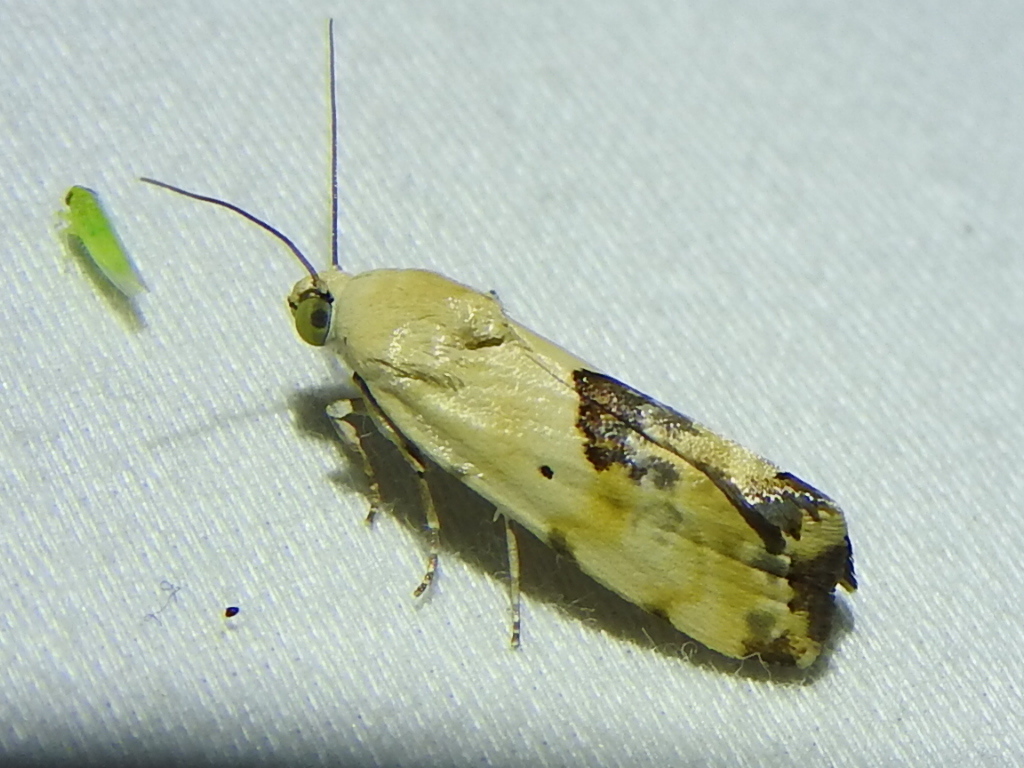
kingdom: Animalia
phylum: Arthropoda
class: Insecta
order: Lepidoptera
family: Noctuidae
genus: Acontia
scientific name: Acontia libedis
